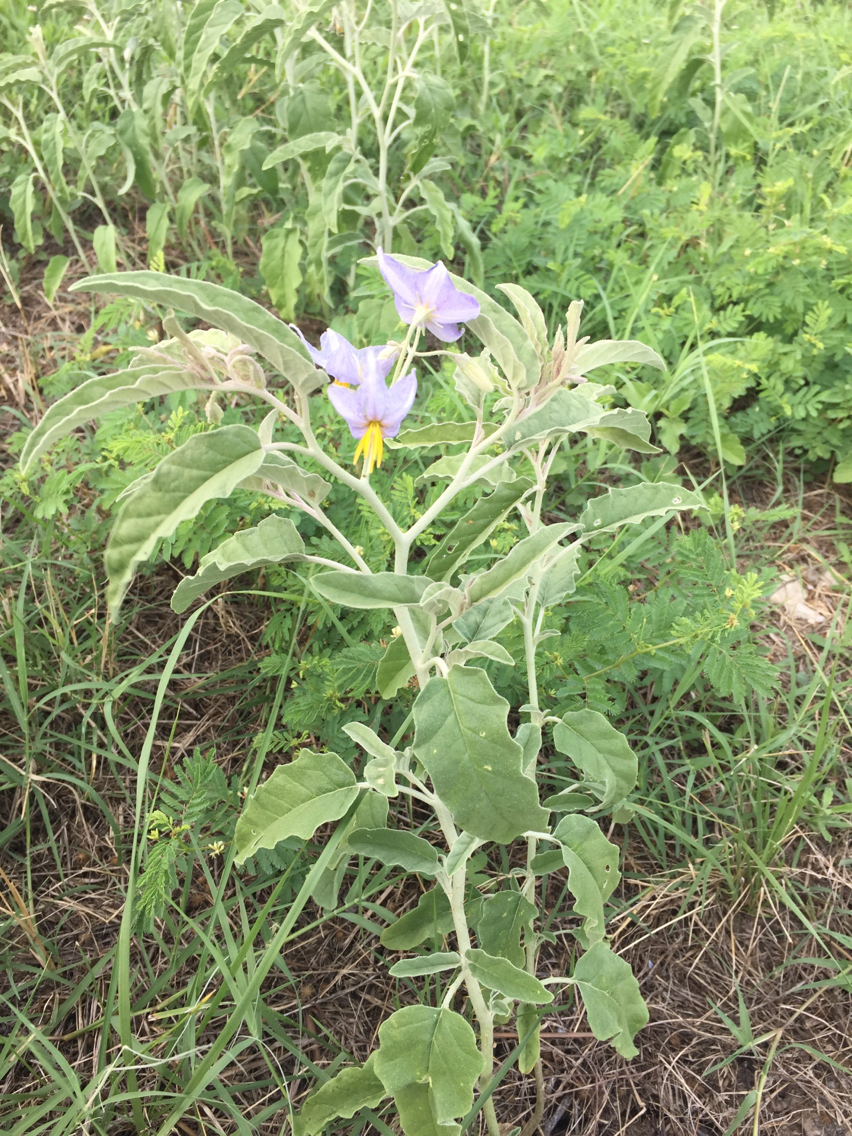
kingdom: Plantae
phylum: Tracheophyta
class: Magnoliopsida
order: Solanales
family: Solanaceae
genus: Solanum
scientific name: Solanum elaeagnifolium
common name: Silverleaf nightshade
